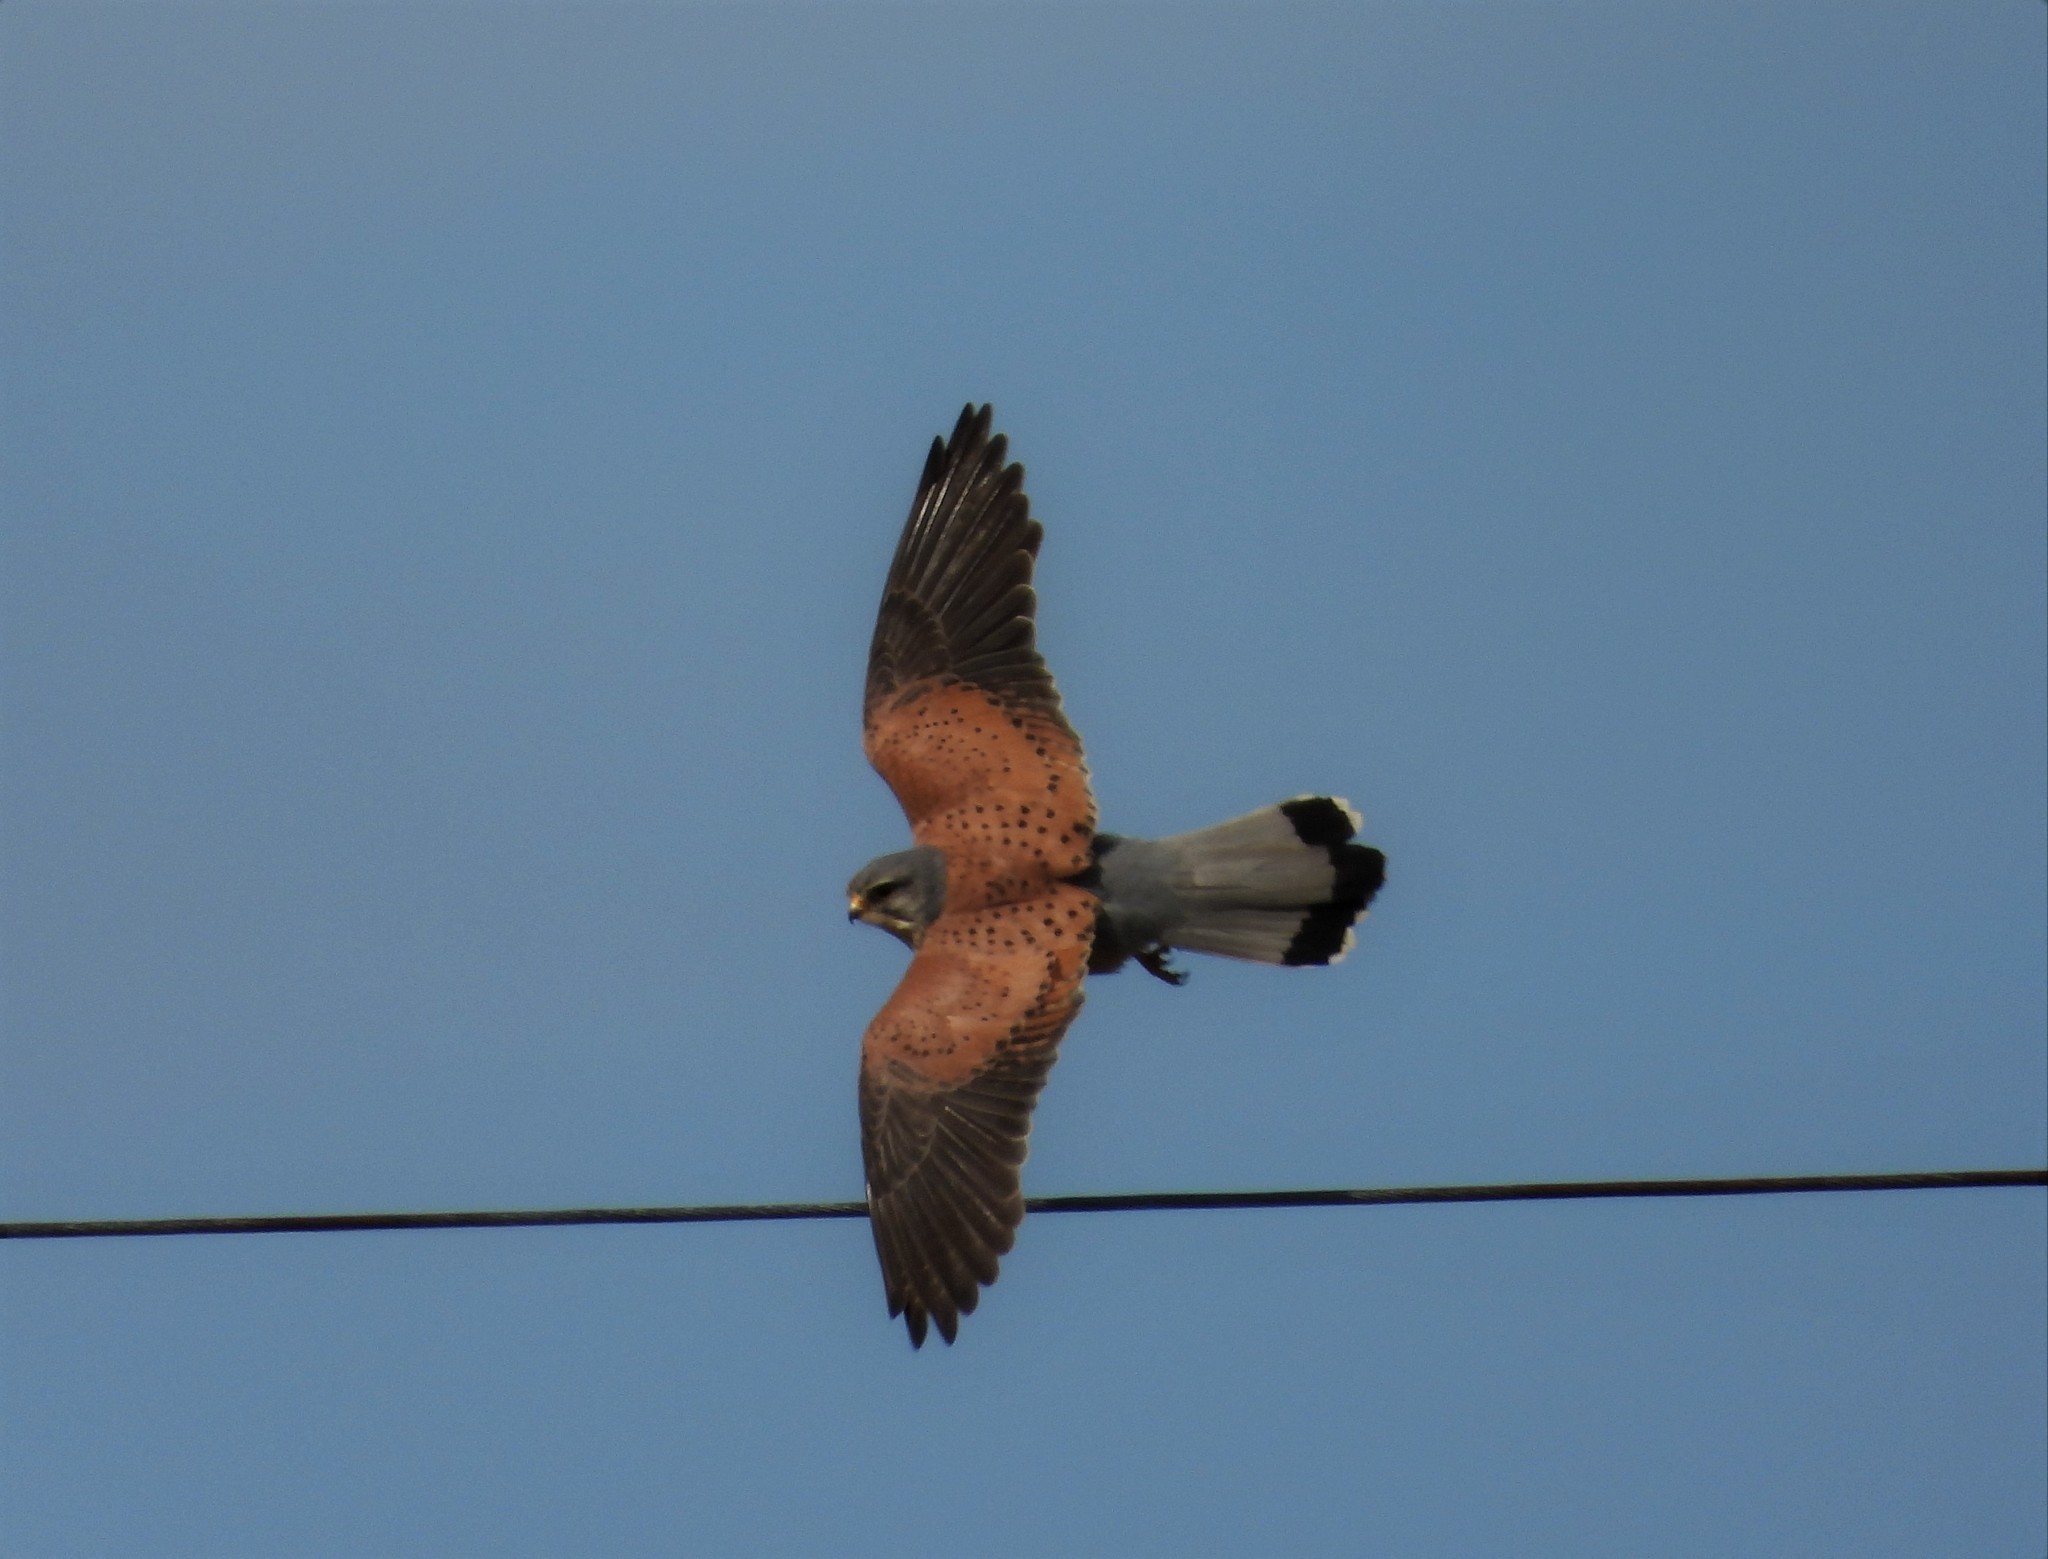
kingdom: Animalia
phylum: Chordata
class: Aves
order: Falconiformes
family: Falconidae
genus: Falco
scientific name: Falco tinnunculus
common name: Common kestrel
